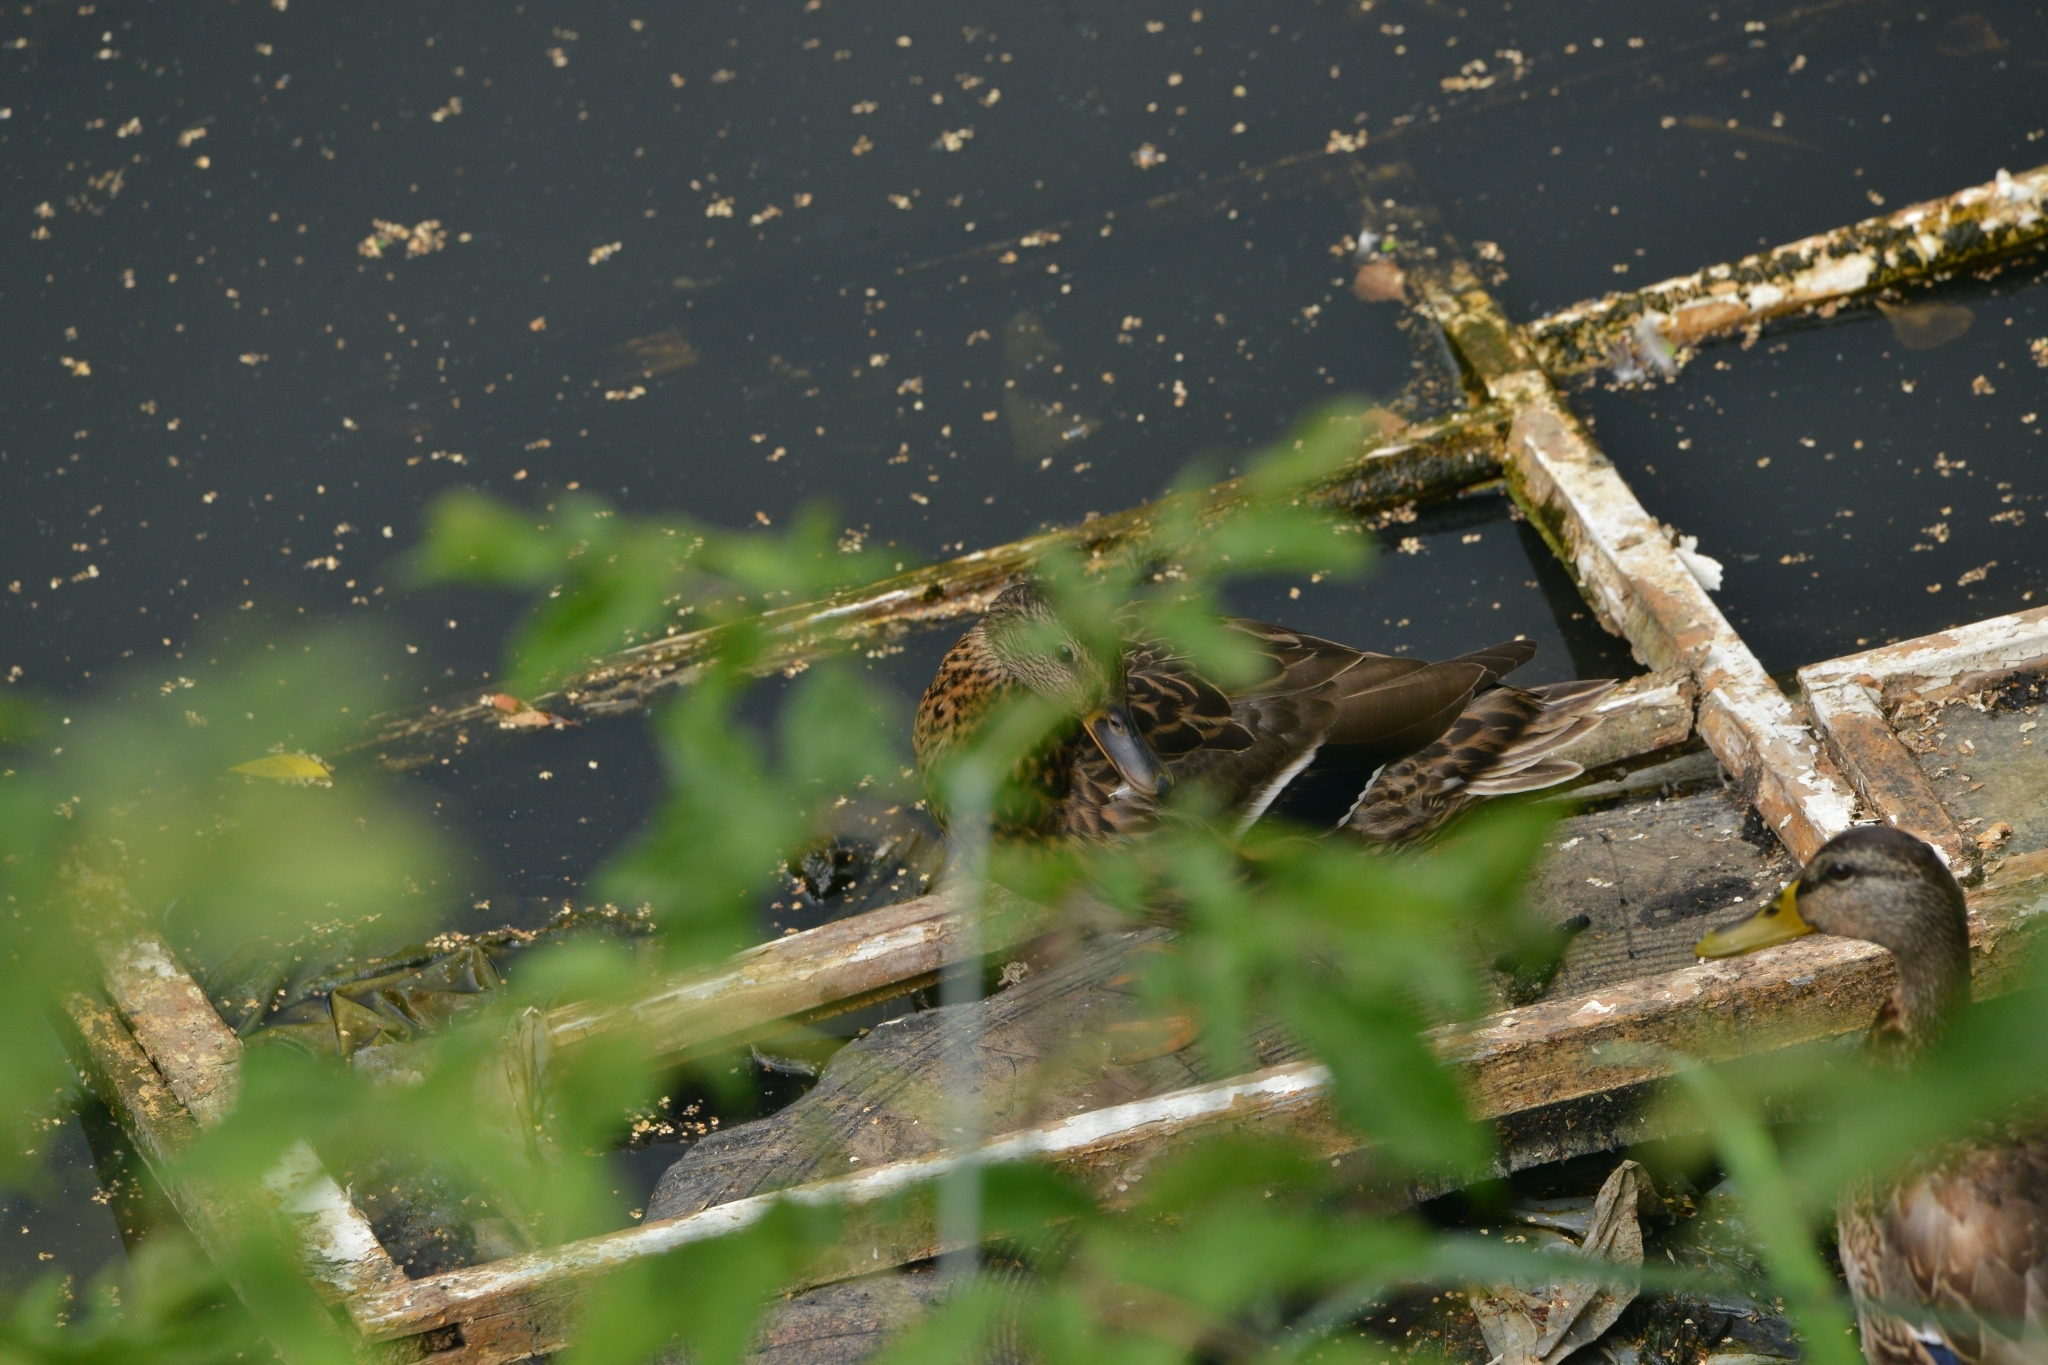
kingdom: Animalia
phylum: Chordata
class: Aves
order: Anseriformes
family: Anatidae
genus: Anas
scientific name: Anas platyrhynchos
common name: Mallard
